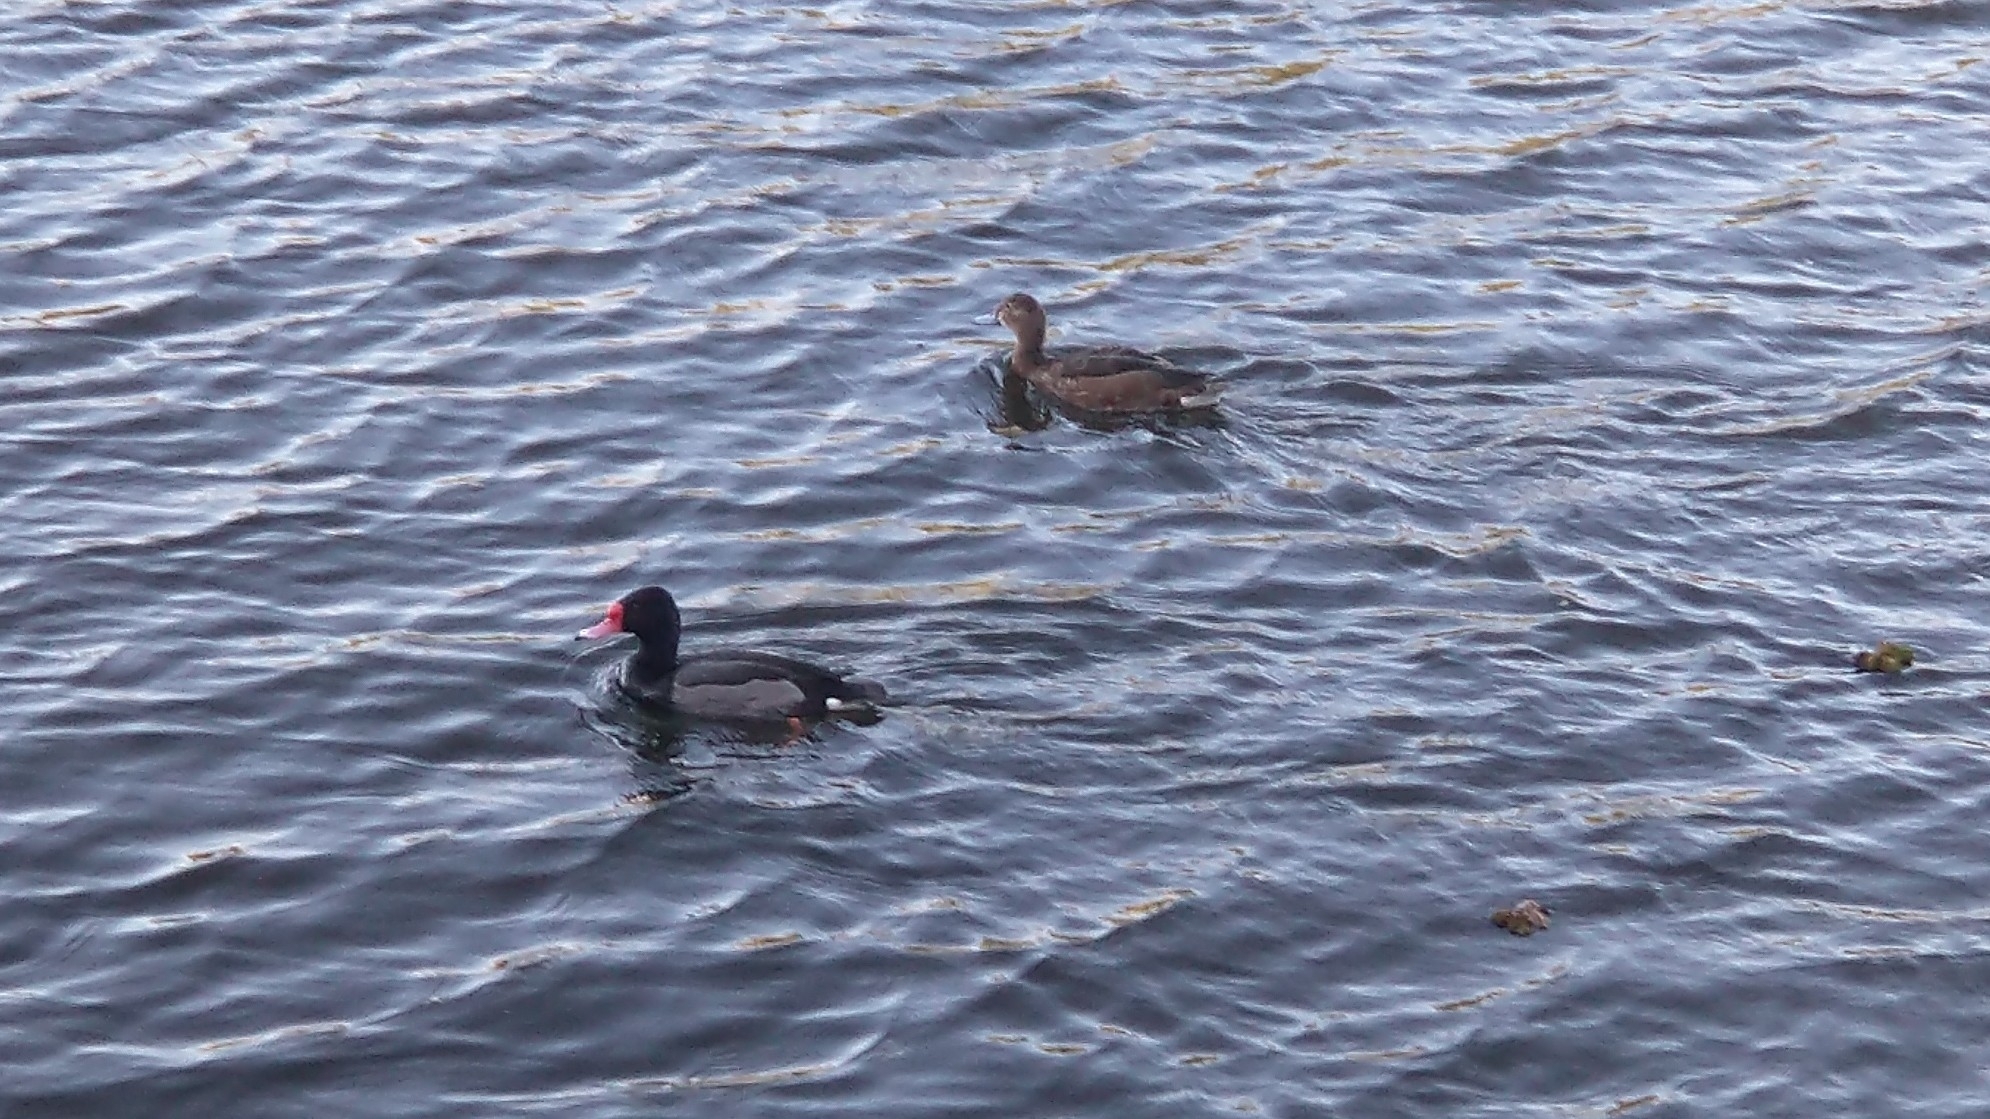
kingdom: Animalia
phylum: Chordata
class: Aves
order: Anseriformes
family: Anatidae
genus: Netta
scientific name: Netta peposaca
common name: Rosy-billed pochard
